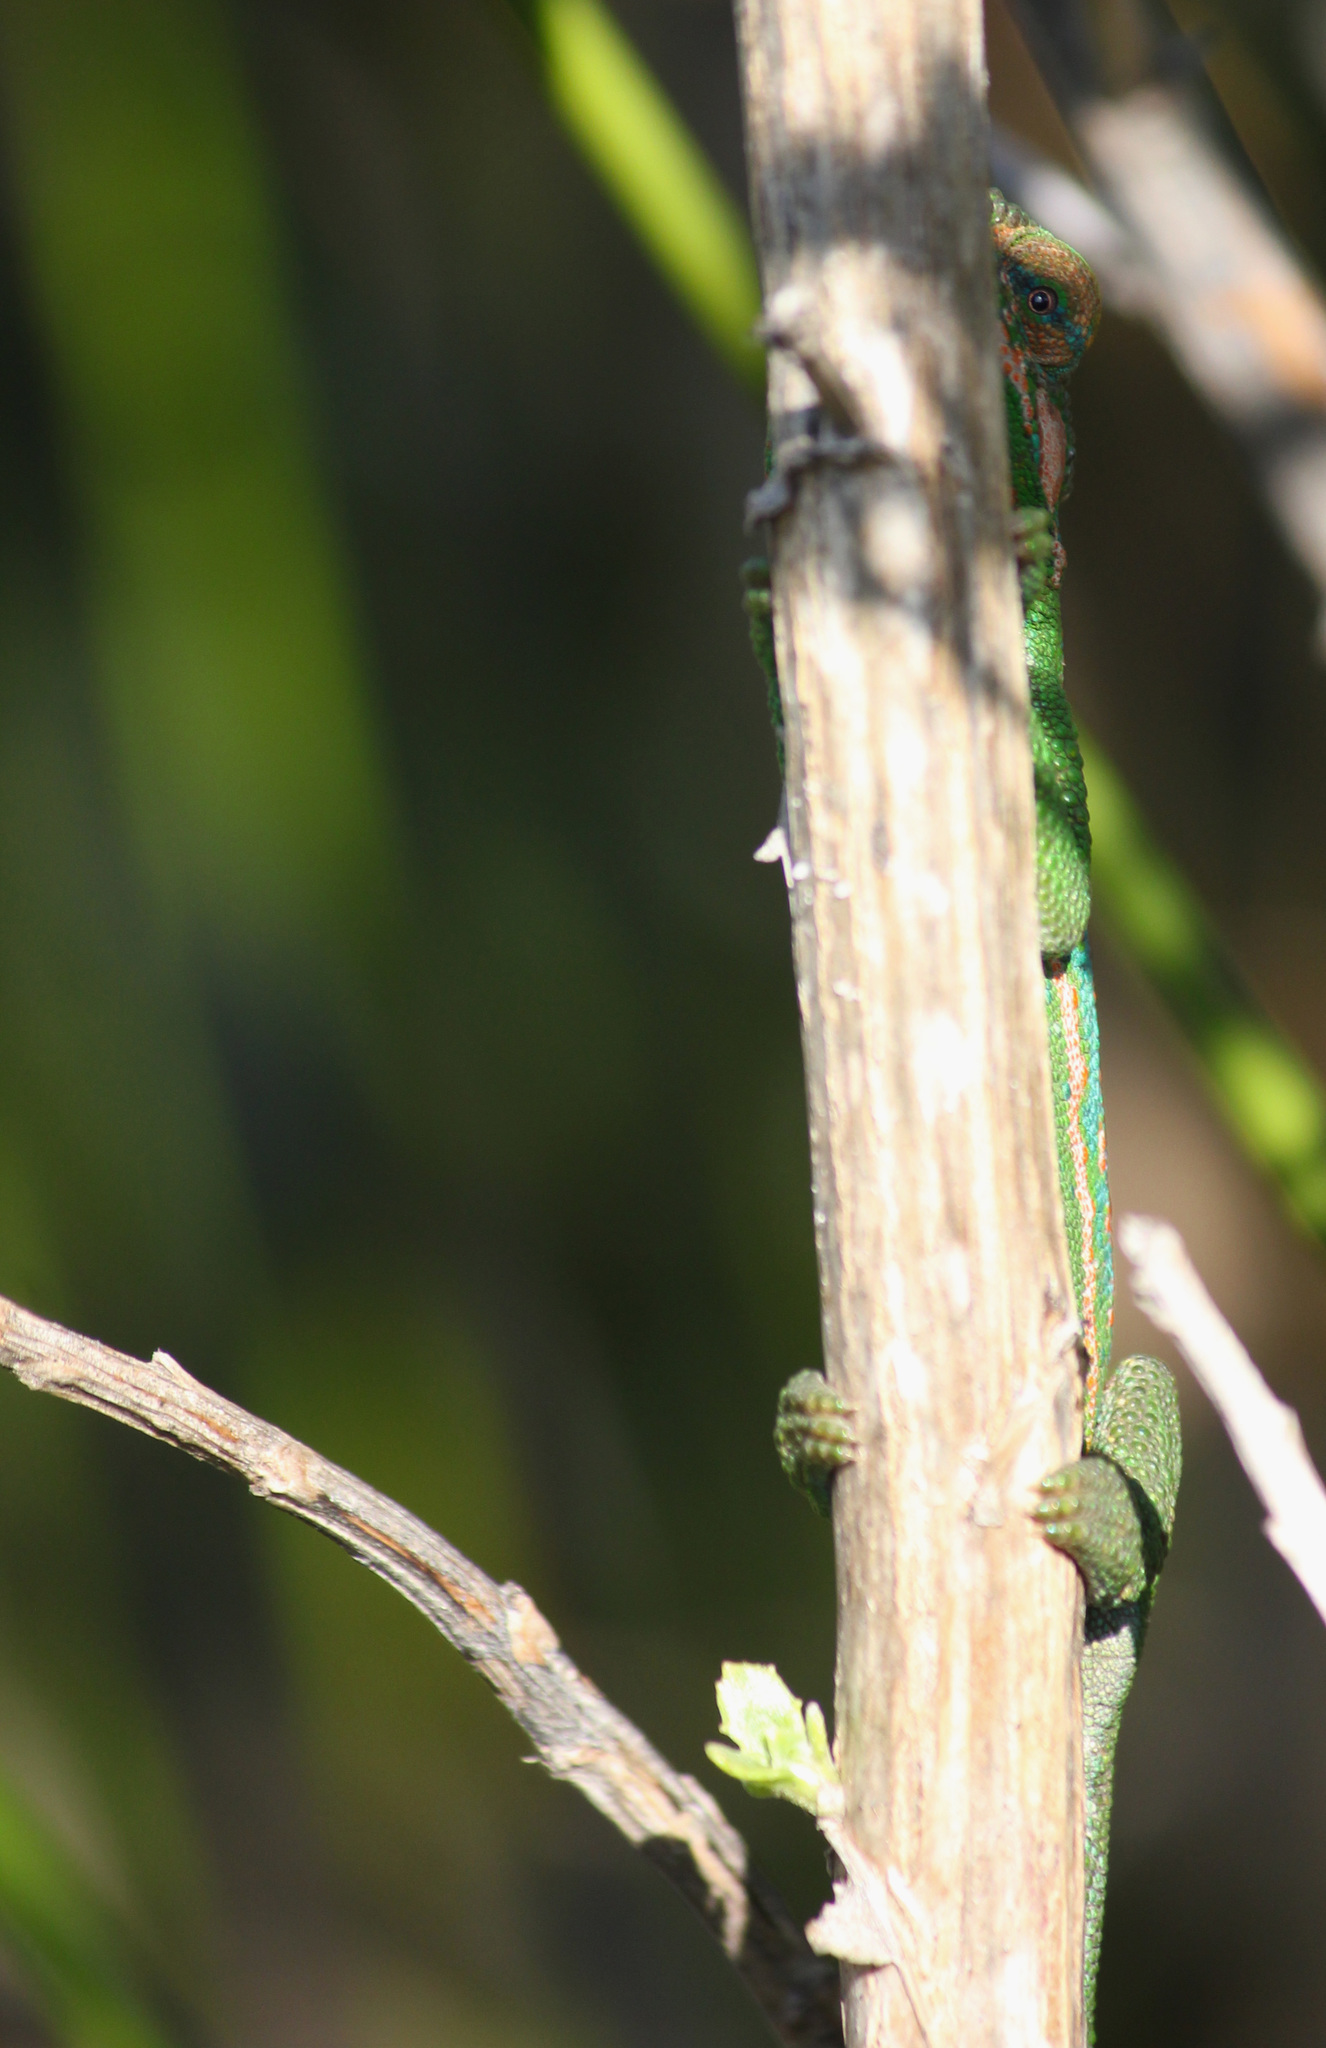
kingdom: Animalia
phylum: Chordata
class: Squamata
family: Chamaeleonidae
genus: Bradypodion
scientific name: Bradypodion pumilum
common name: Cape dwarf chameleon
